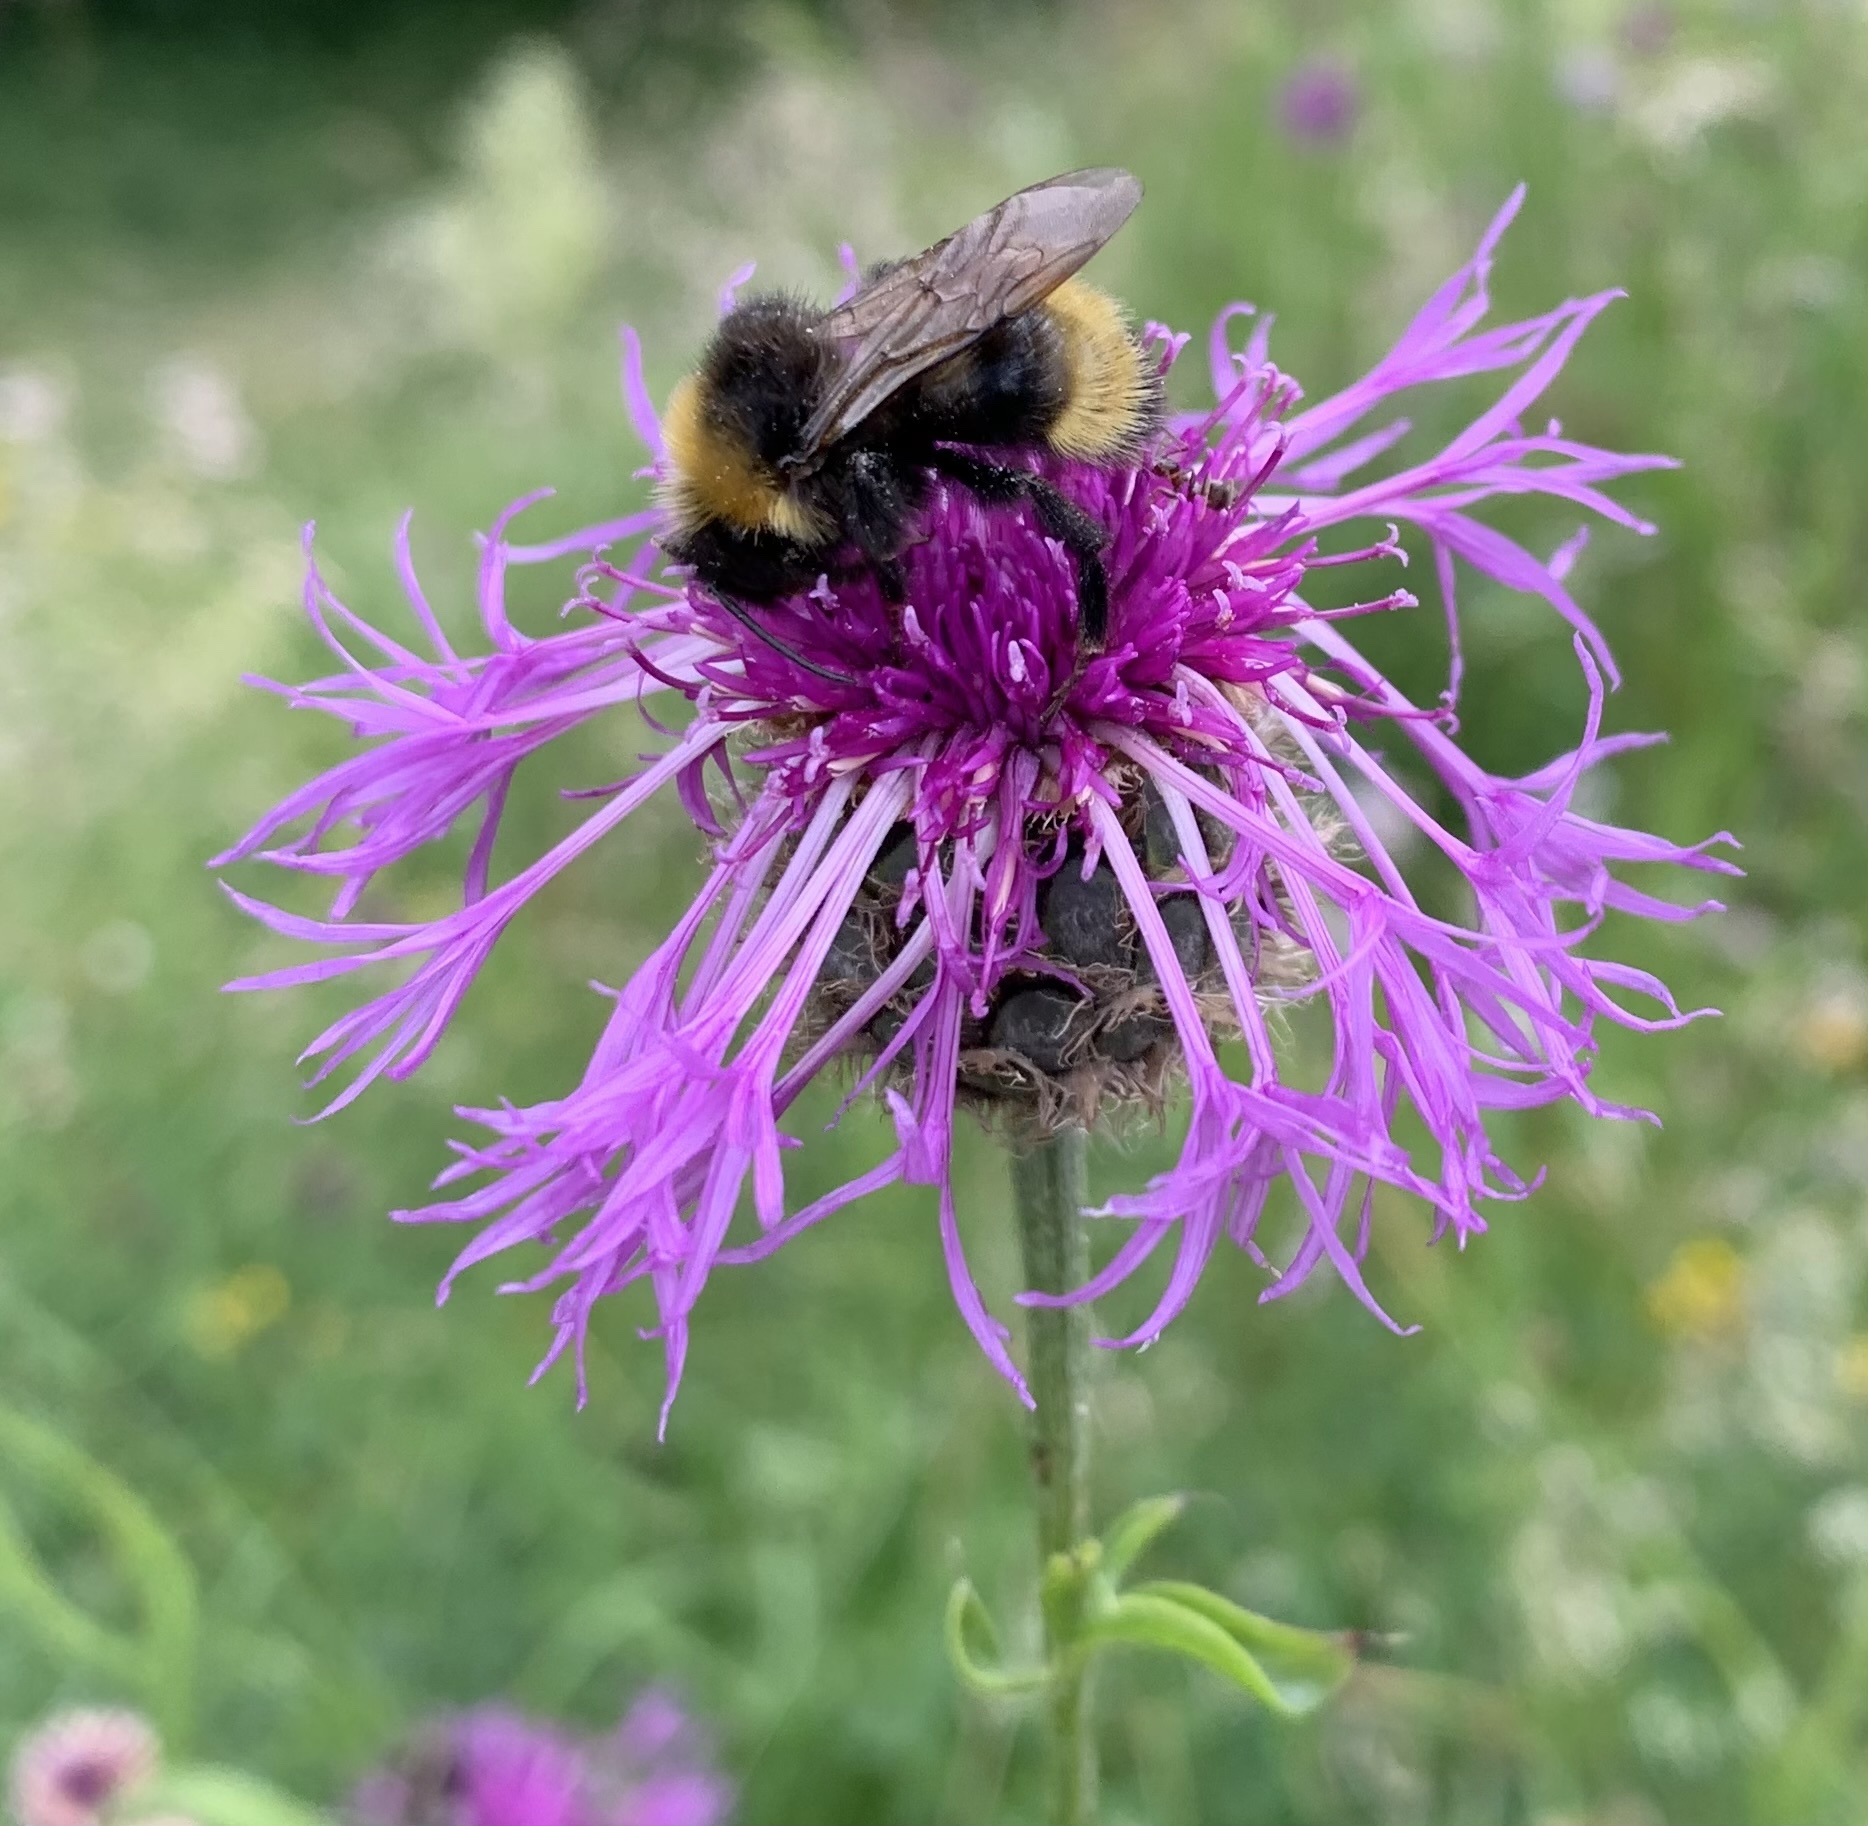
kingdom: Animalia
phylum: Arthropoda
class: Insecta
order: Hymenoptera
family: Apidae
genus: Bombus
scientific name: Bombus campestris
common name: Field cuckoo-bee
